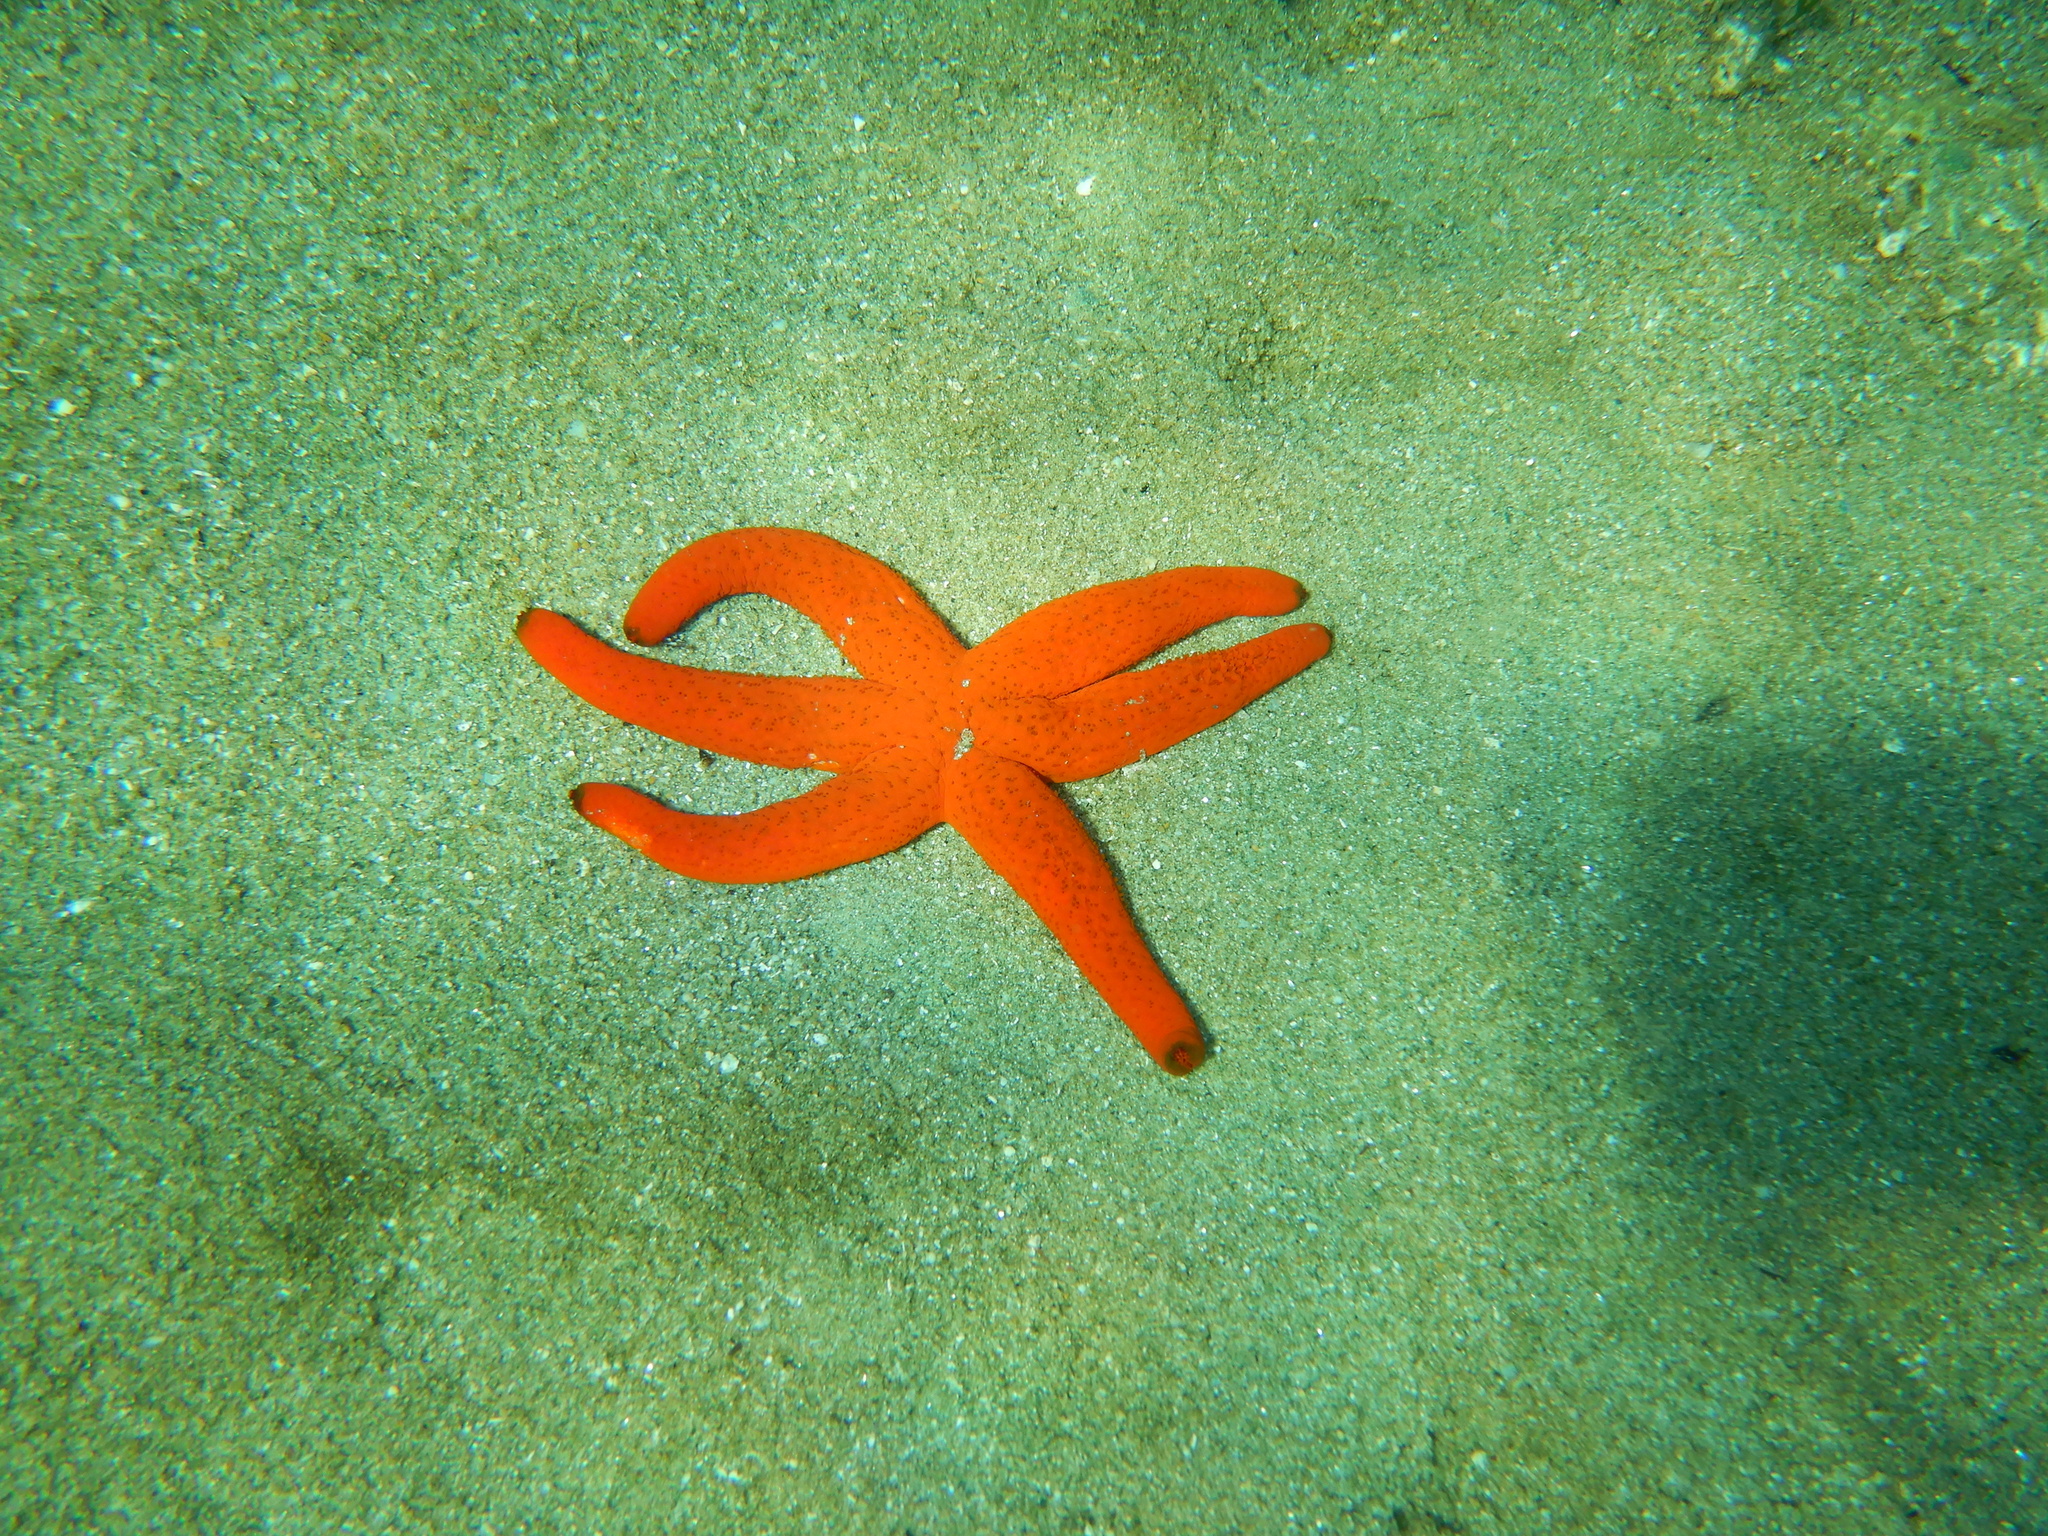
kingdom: Animalia
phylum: Echinodermata
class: Asteroidea
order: Spinulosida
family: Echinasteridae
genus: Echinaster
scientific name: Echinaster sepositus
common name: Red starfish
